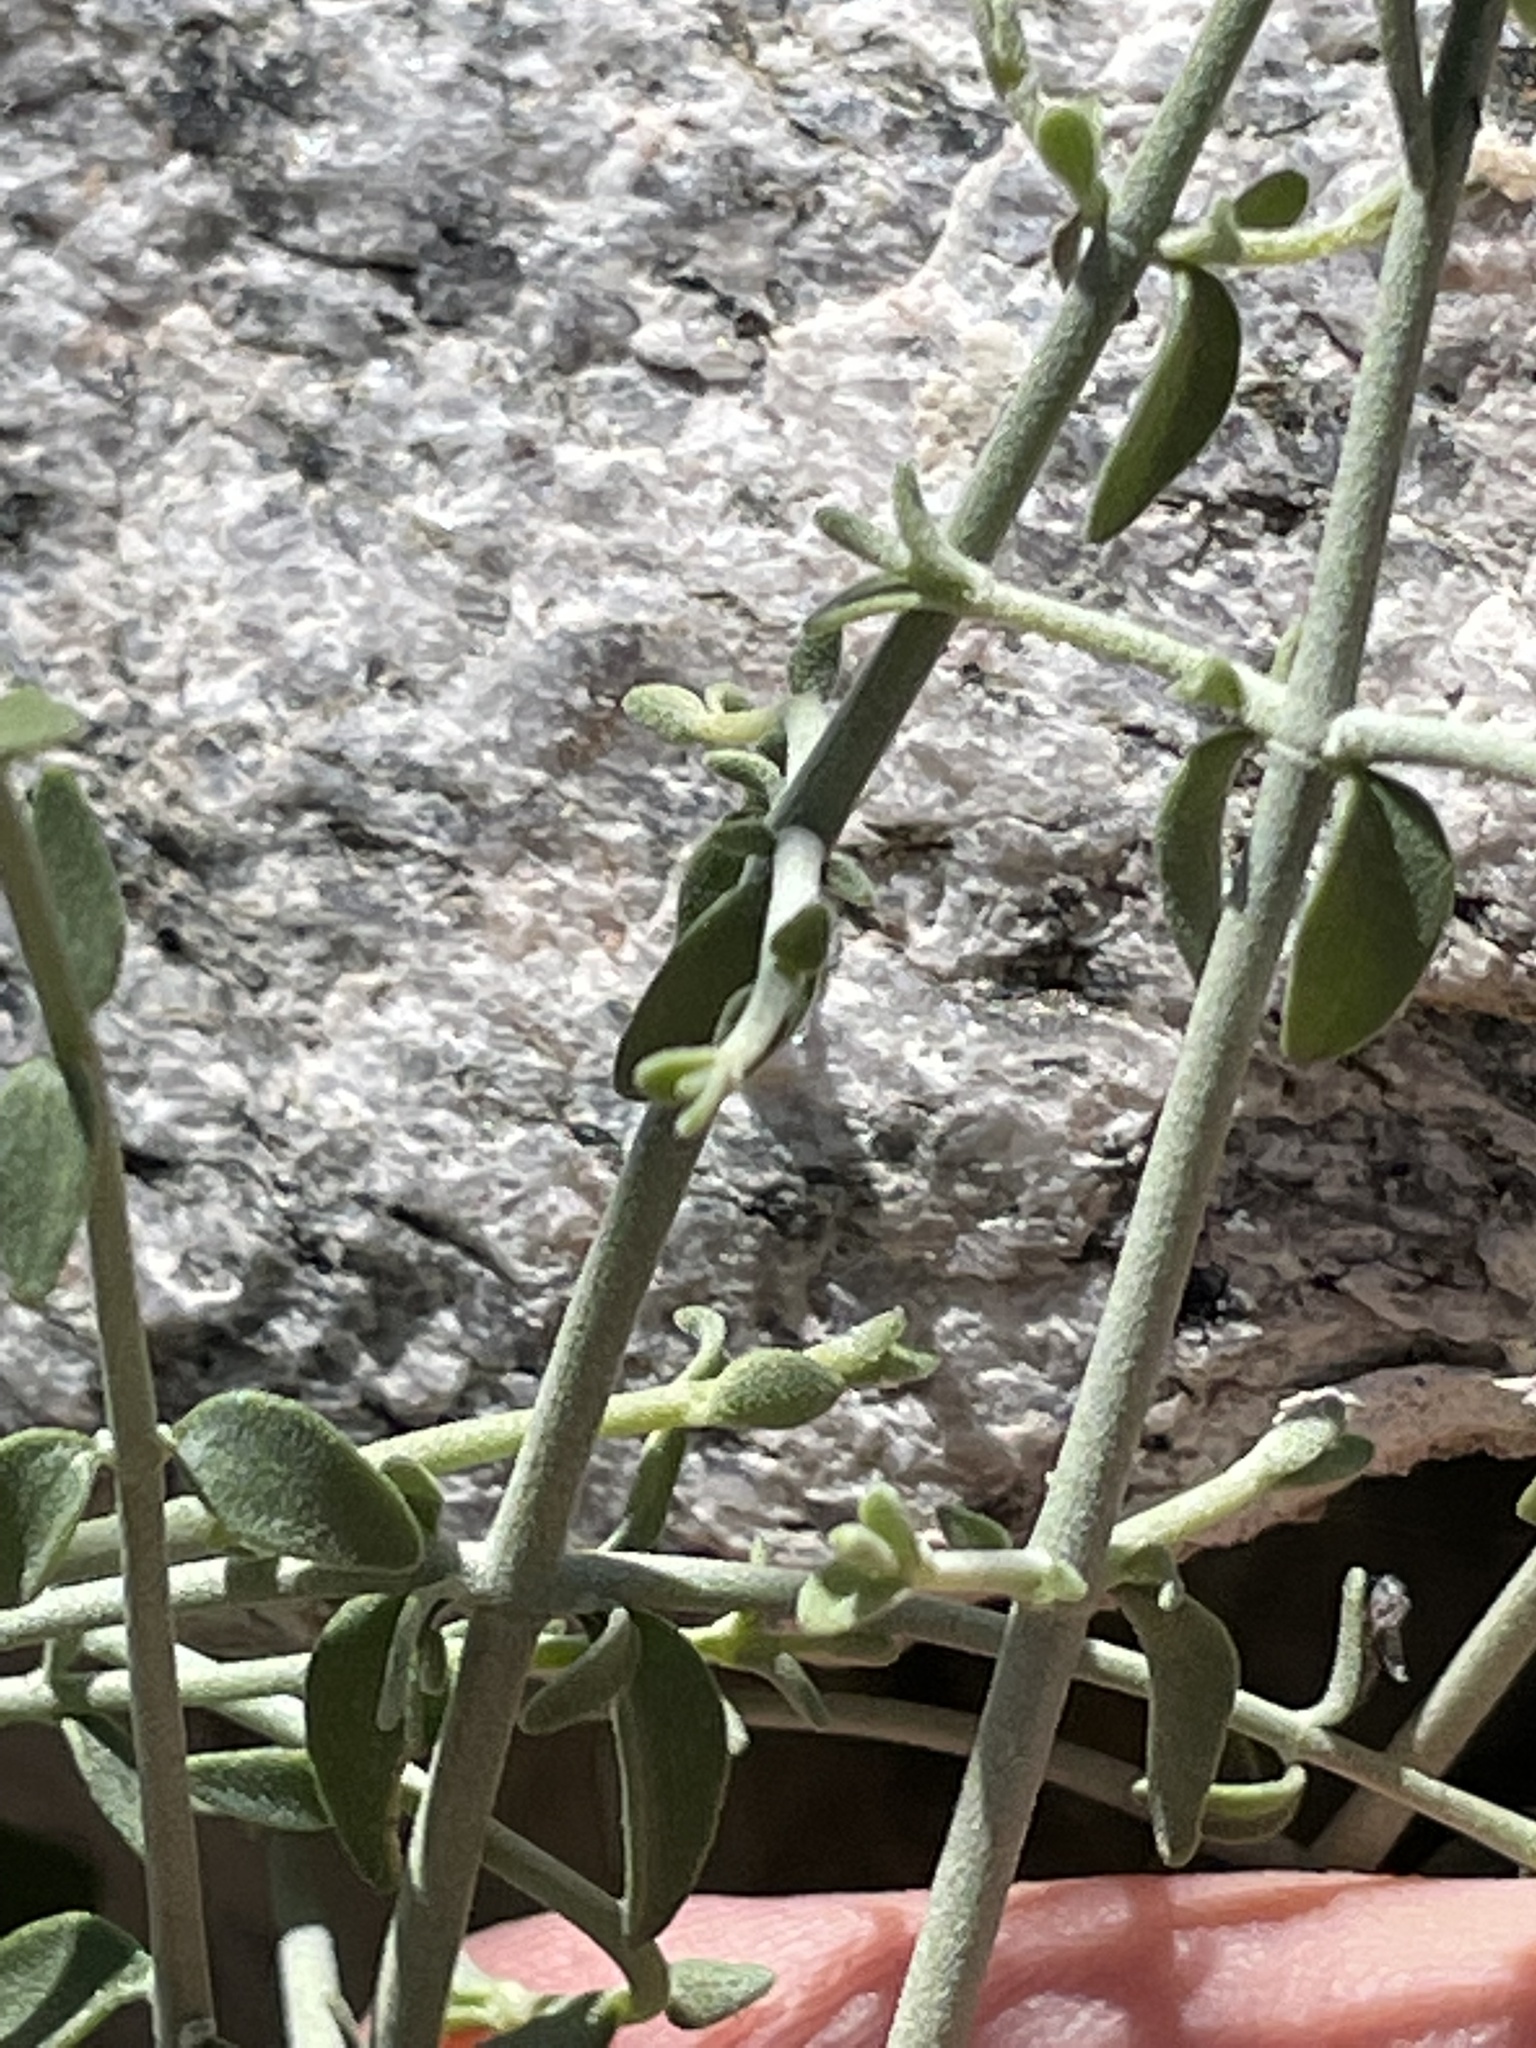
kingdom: Plantae
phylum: Tracheophyta
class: Magnoliopsida
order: Lamiales
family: Lamiaceae
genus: Scutellaria
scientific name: Scutellaria mexicana
